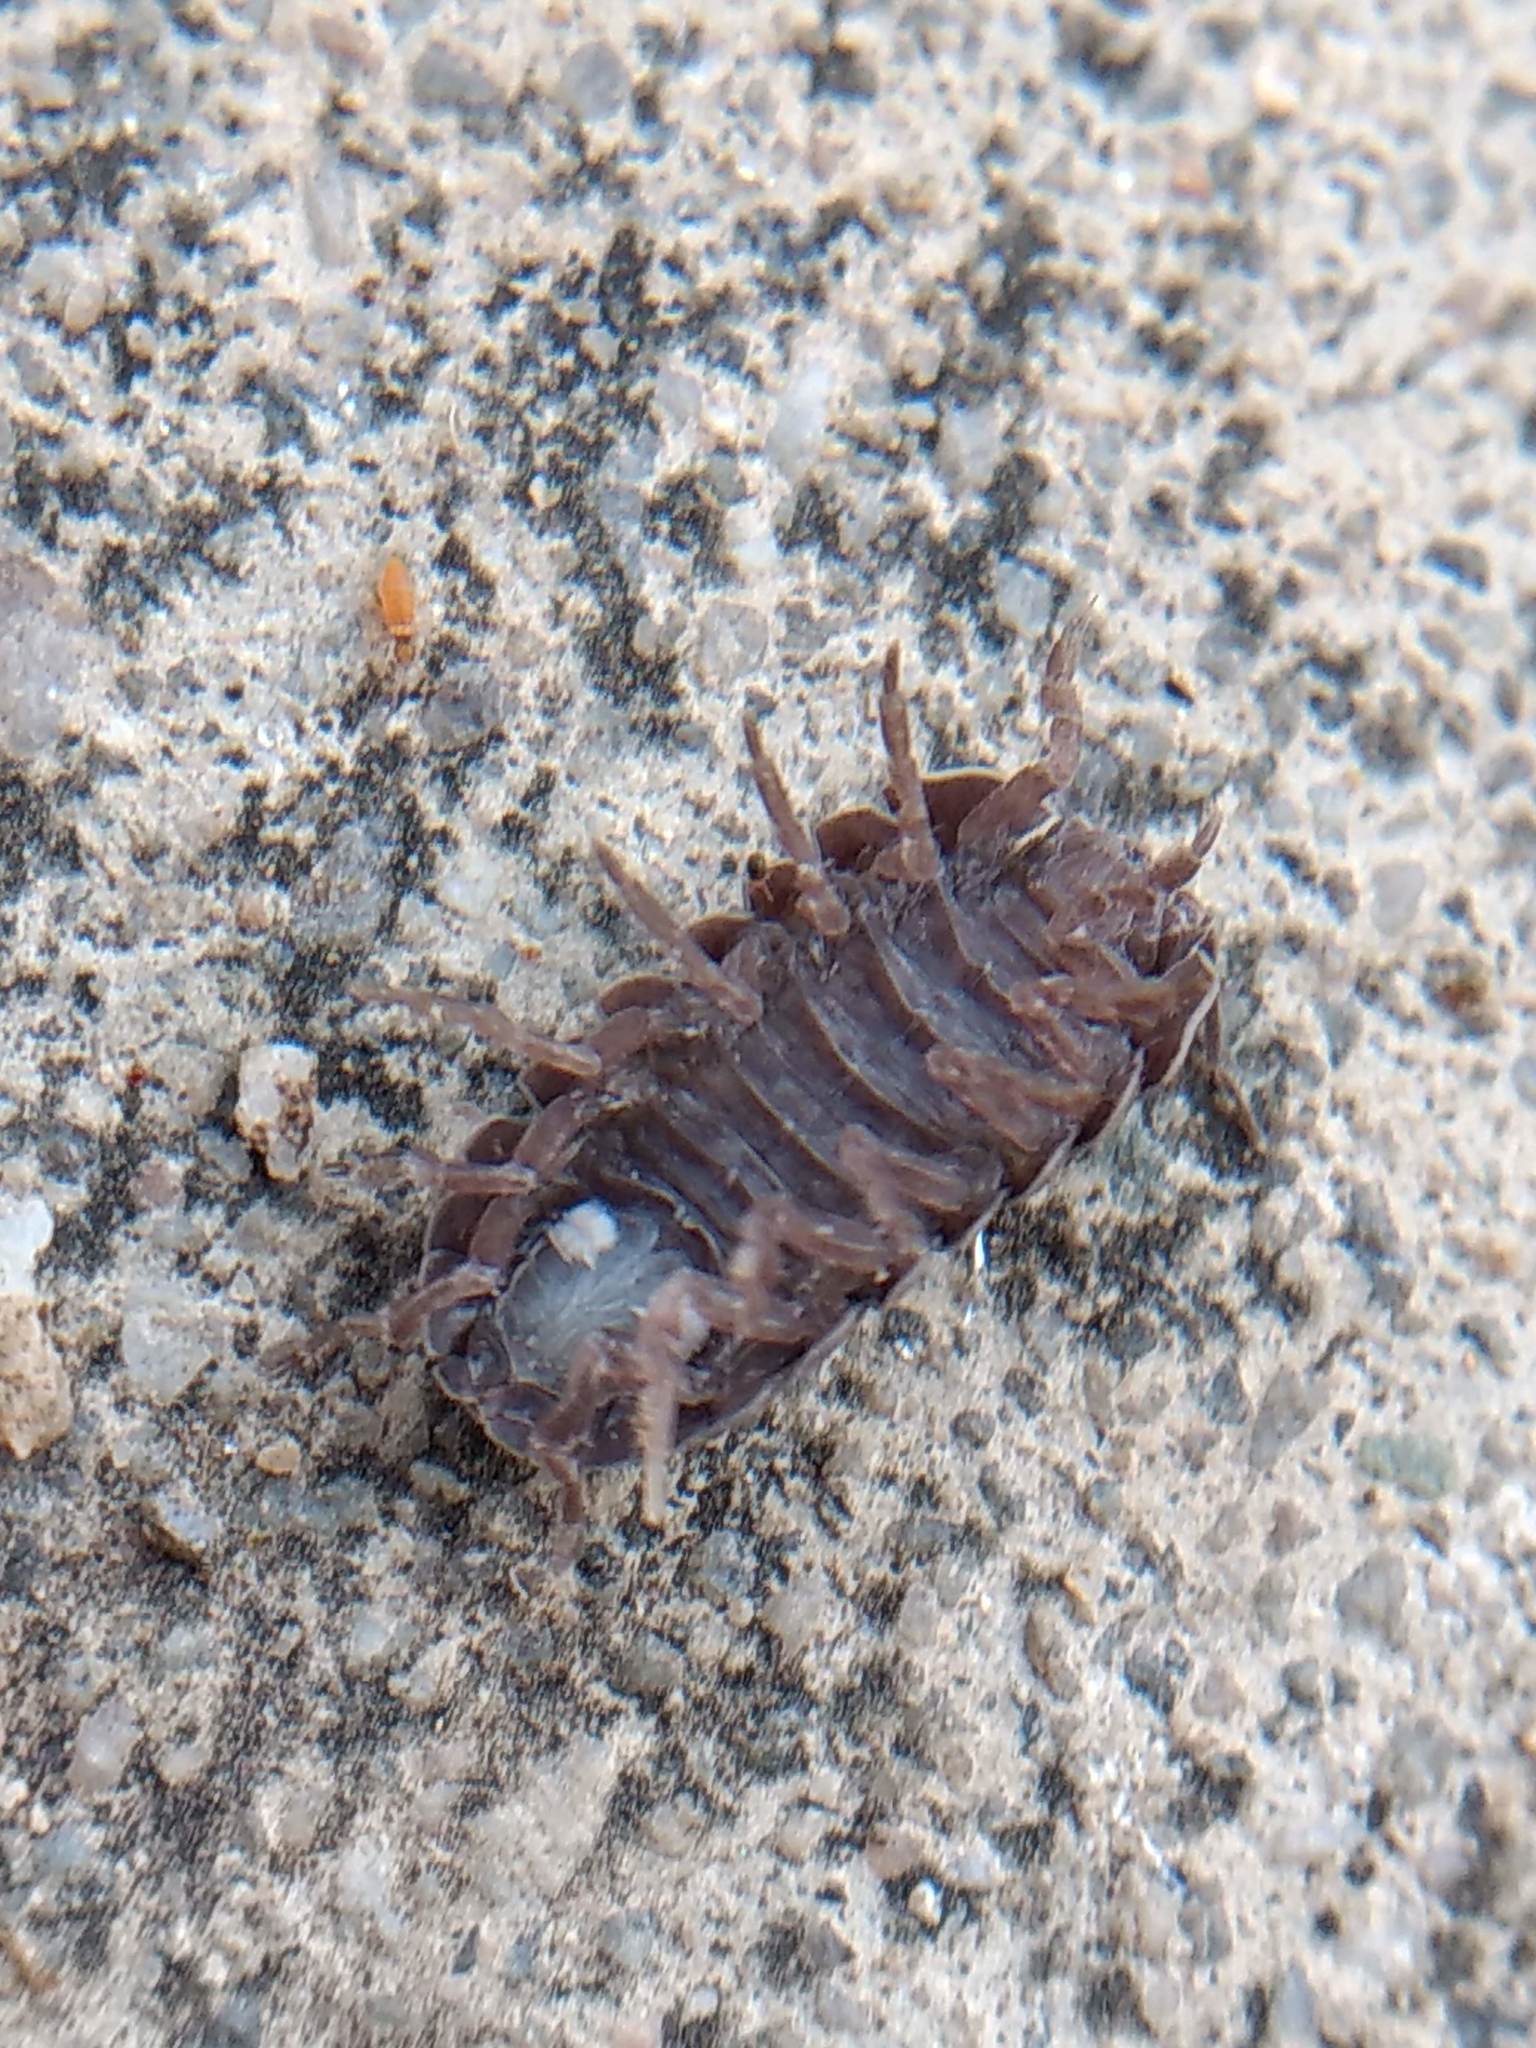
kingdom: Animalia
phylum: Arthropoda
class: Malacostraca
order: Isopoda
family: Armadillidiidae
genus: Armadillidium
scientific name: Armadillidium vulgare
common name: Common pill woodlouse
